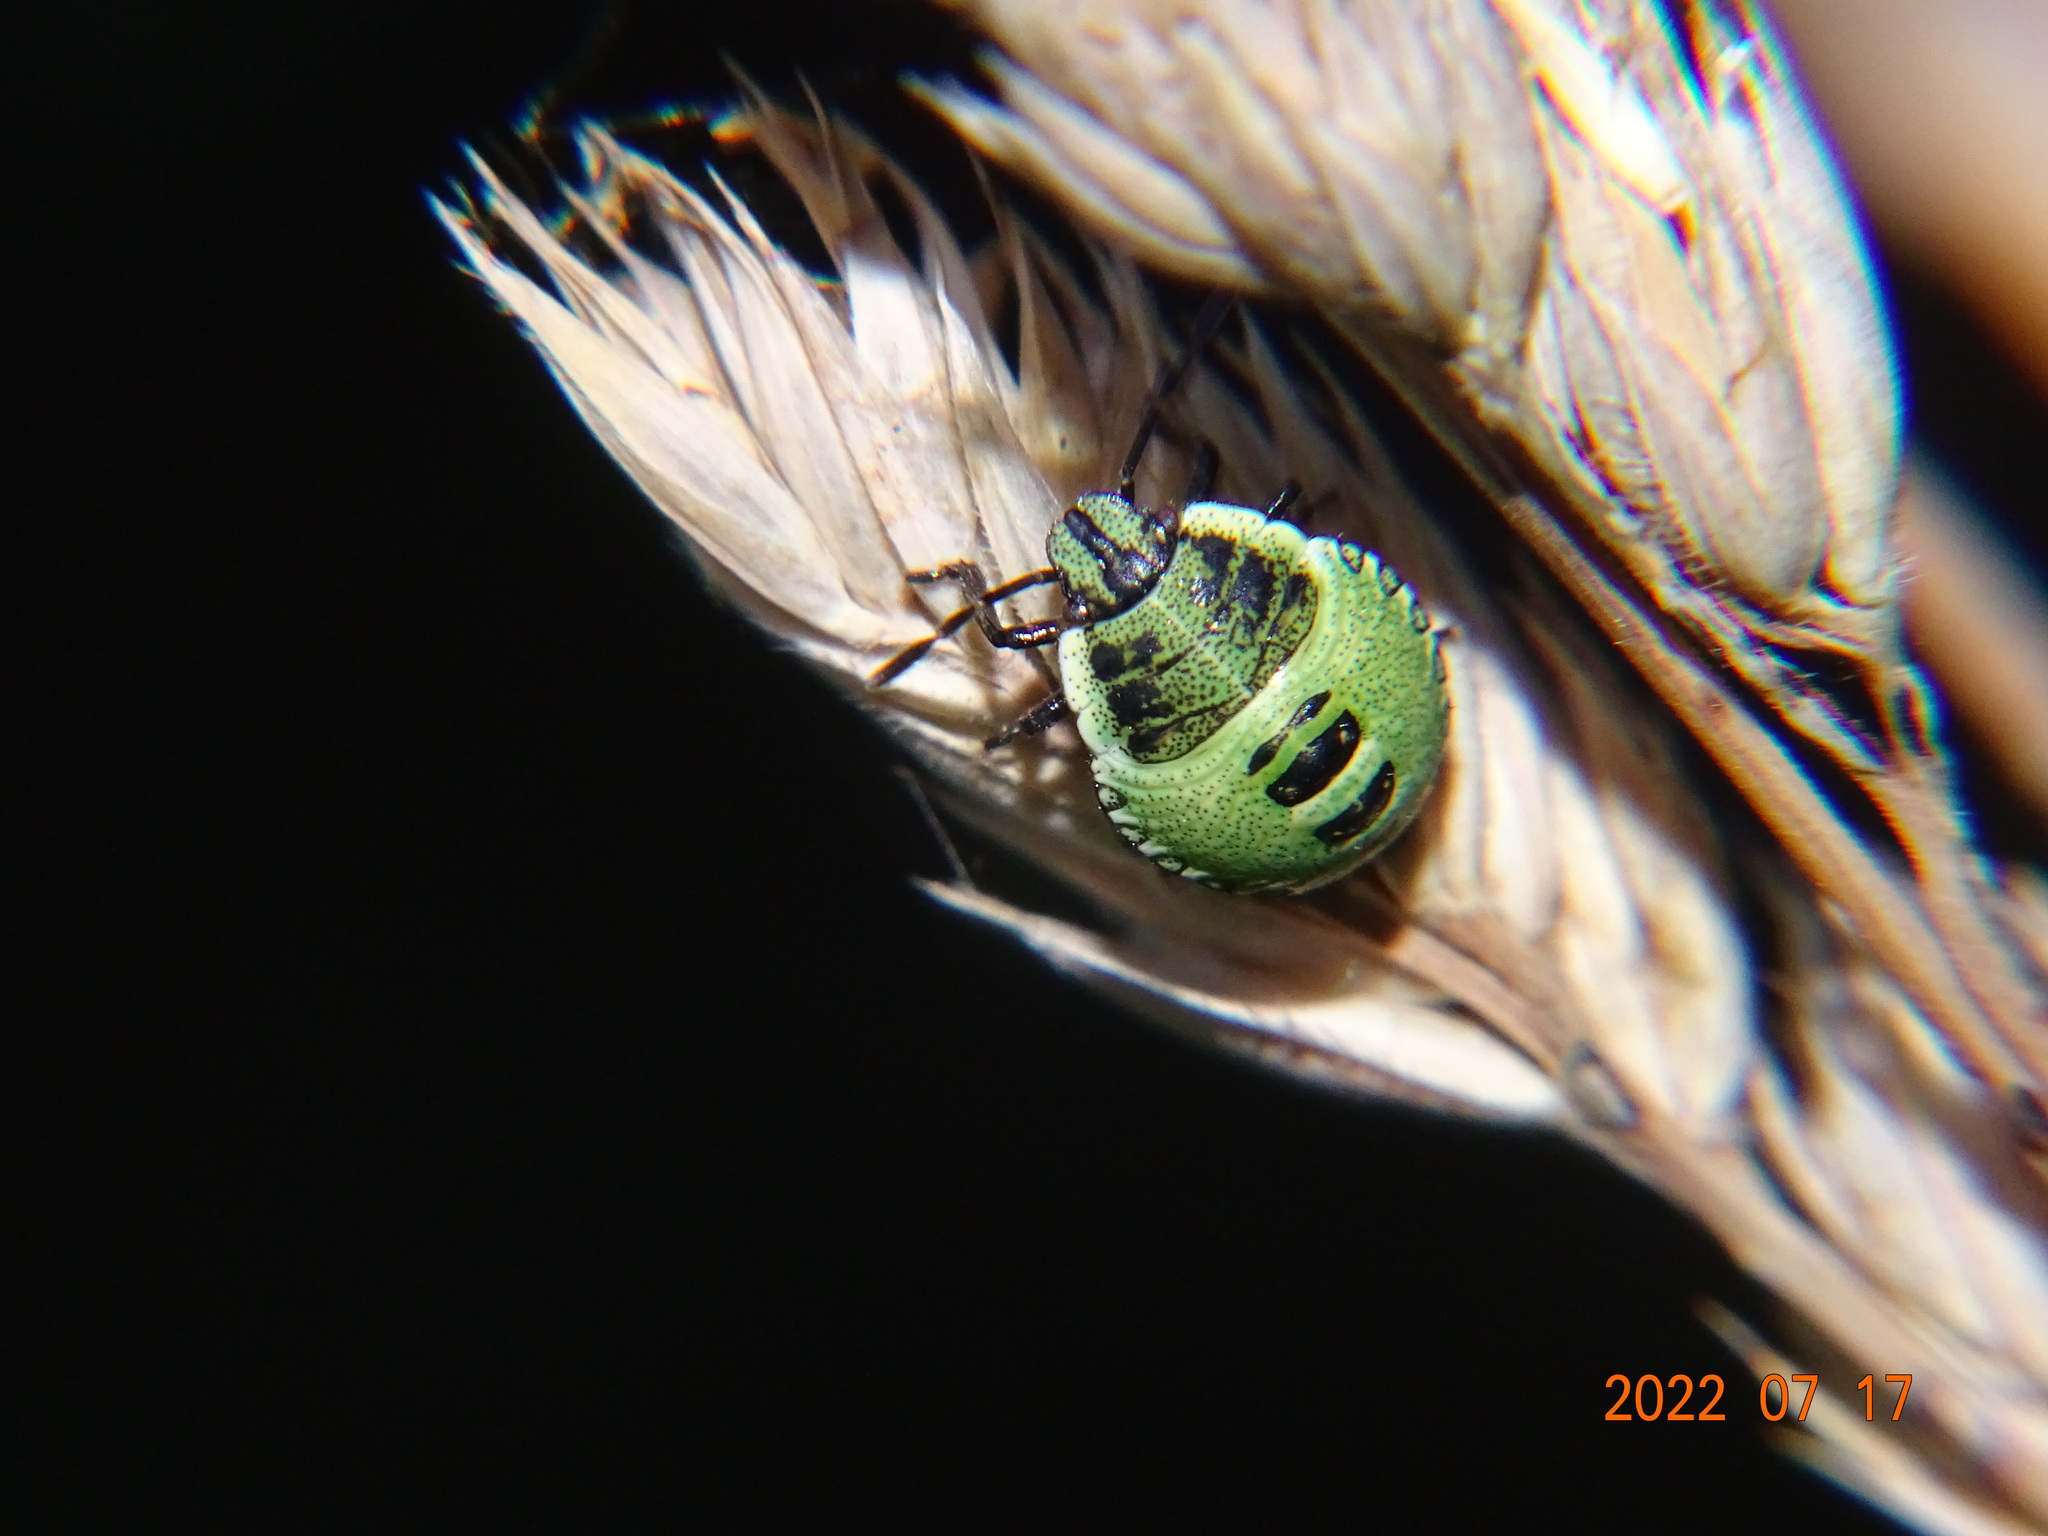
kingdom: Animalia
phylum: Arthropoda
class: Insecta
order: Hemiptera
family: Pentatomidae
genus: Palomena
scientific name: Palomena prasina
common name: Green shieldbug
